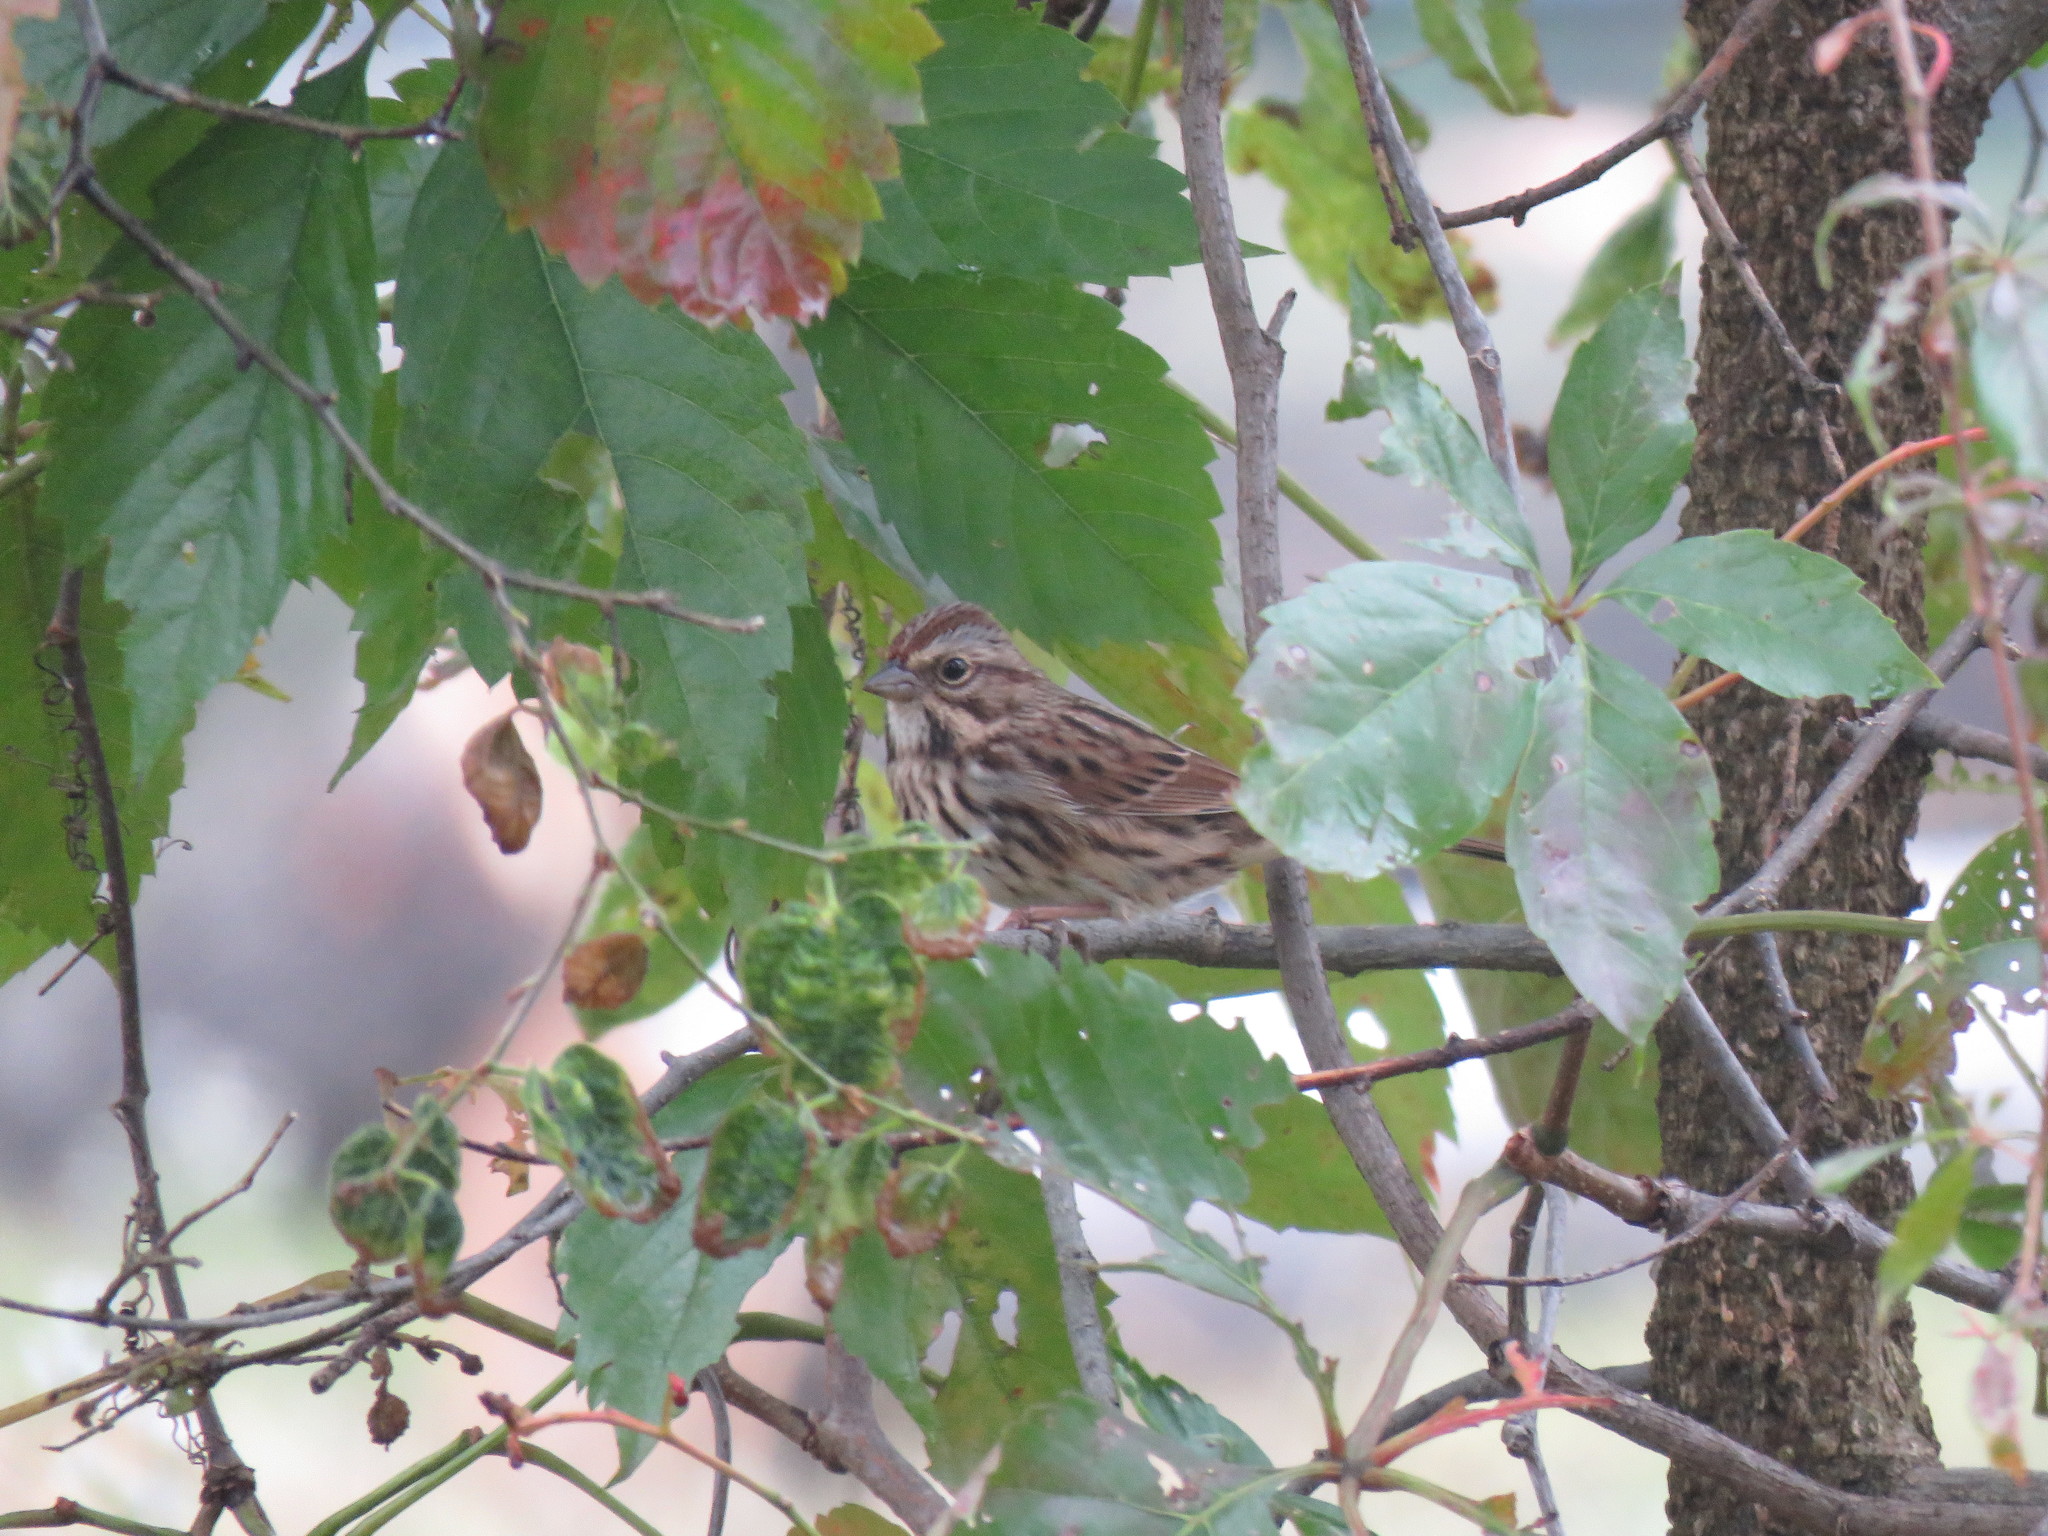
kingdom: Animalia
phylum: Chordata
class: Aves
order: Passeriformes
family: Passerellidae
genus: Melospiza
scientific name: Melospiza melodia
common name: Song sparrow
